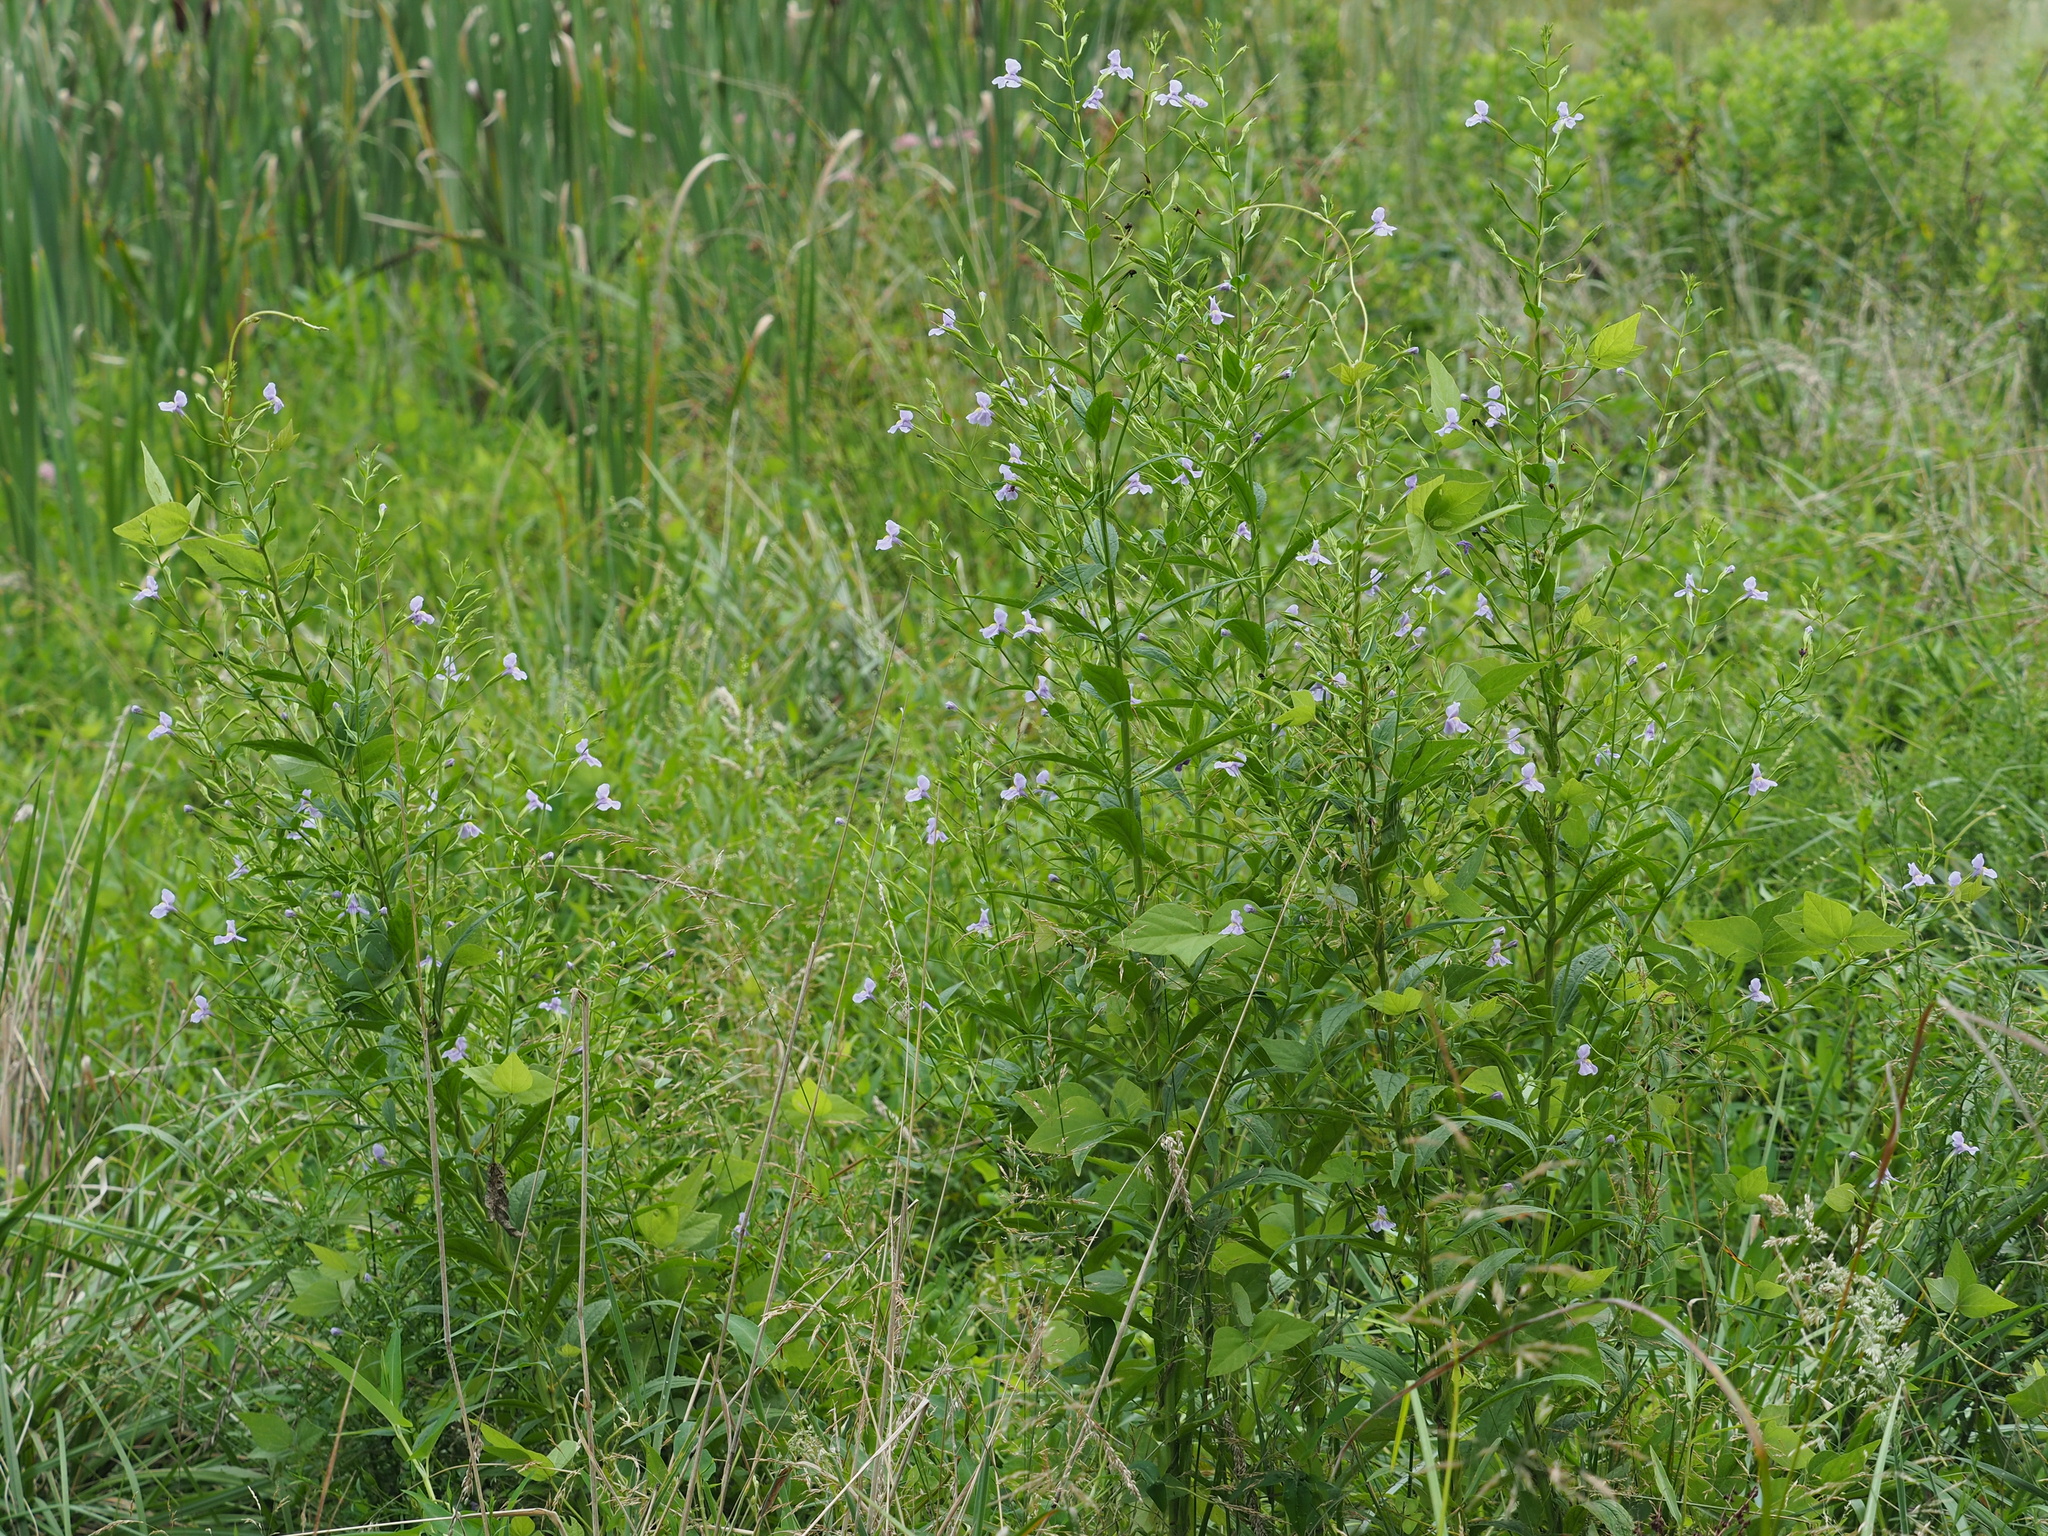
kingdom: Plantae
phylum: Tracheophyta
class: Magnoliopsida
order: Lamiales
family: Phrymaceae
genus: Mimulus
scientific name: Mimulus ringens
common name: Allegheny monkeyflower
